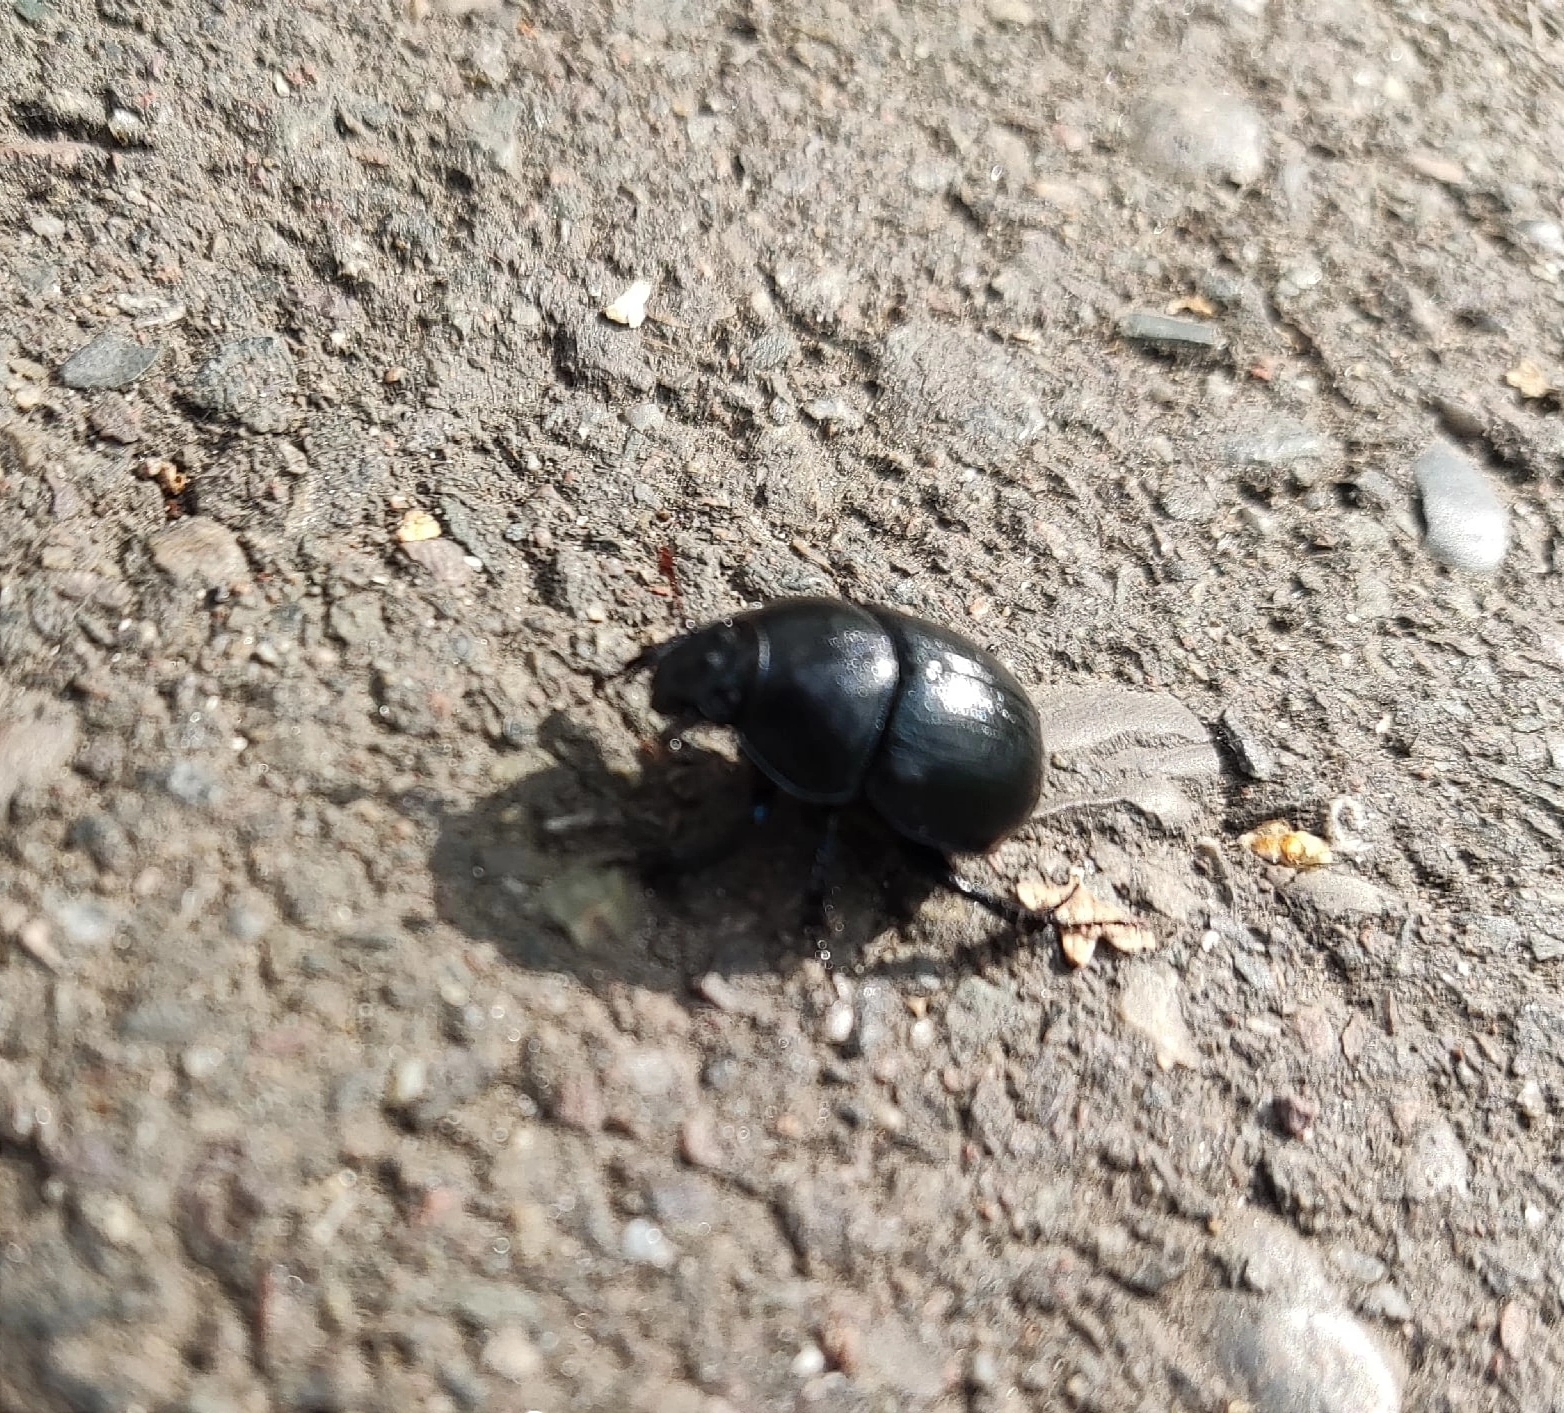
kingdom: Animalia
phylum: Arthropoda
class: Insecta
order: Coleoptera
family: Geotrupidae
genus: Anoplotrupes
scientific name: Anoplotrupes stercorosus
